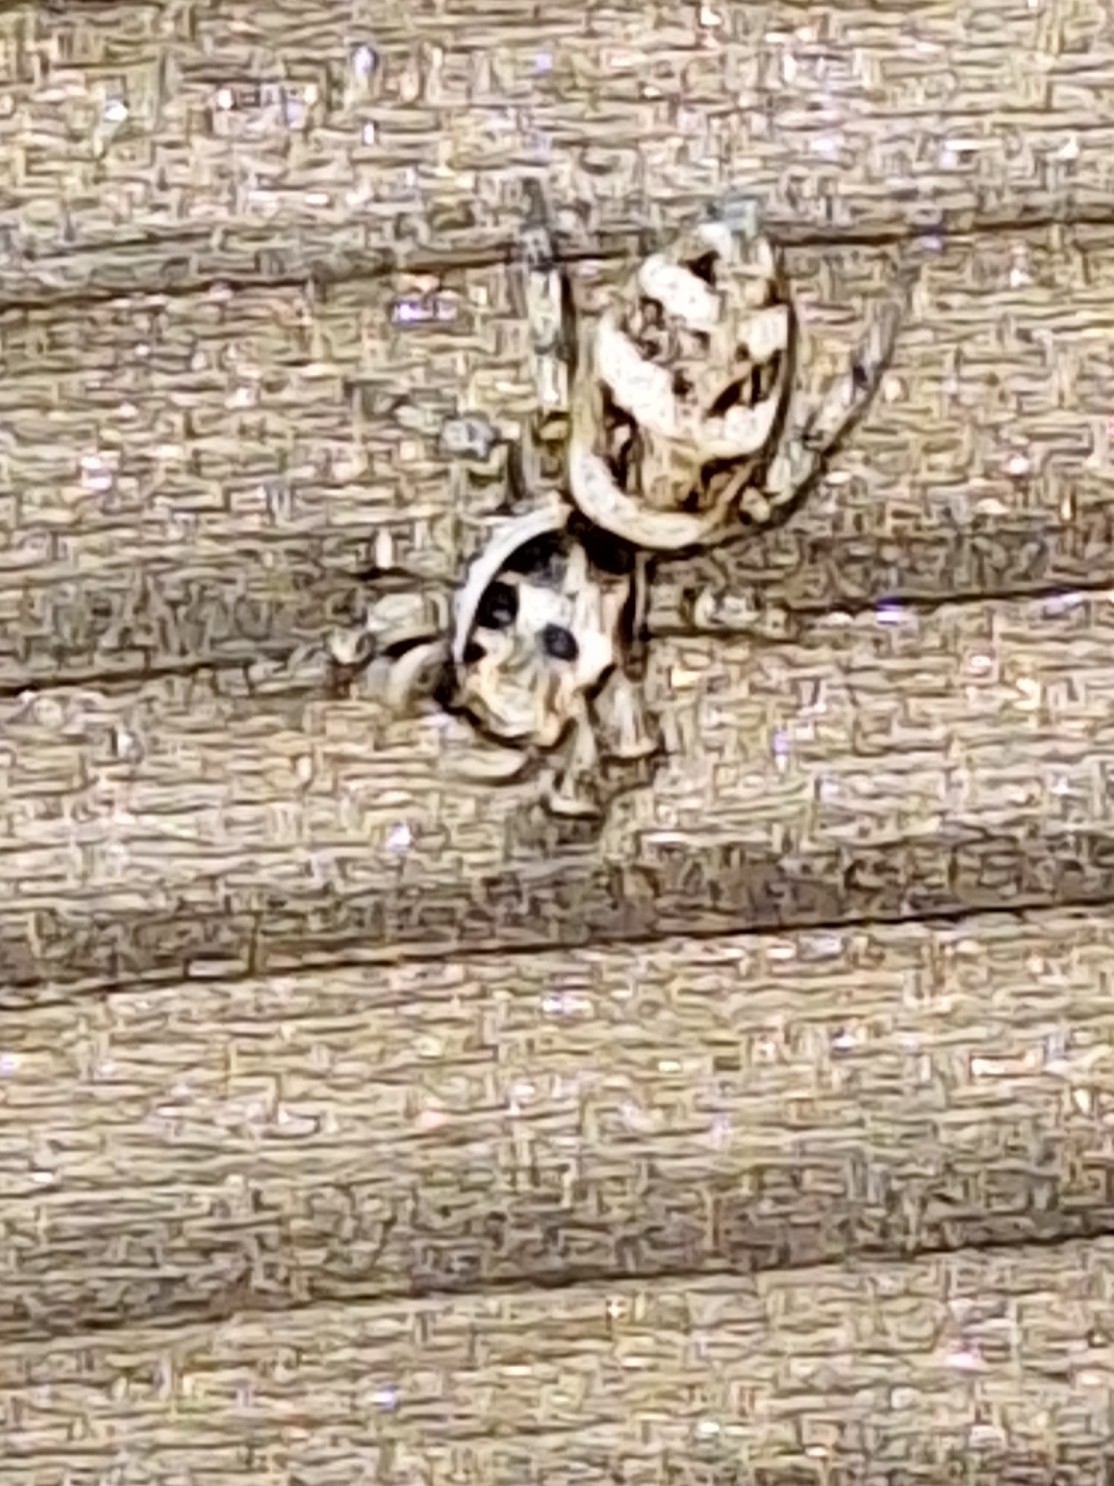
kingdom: Animalia
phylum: Arthropoda
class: Arachnida
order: Araneae
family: Salticidae
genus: Salticus
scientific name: Salticus scenicus
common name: Zebra jumper
